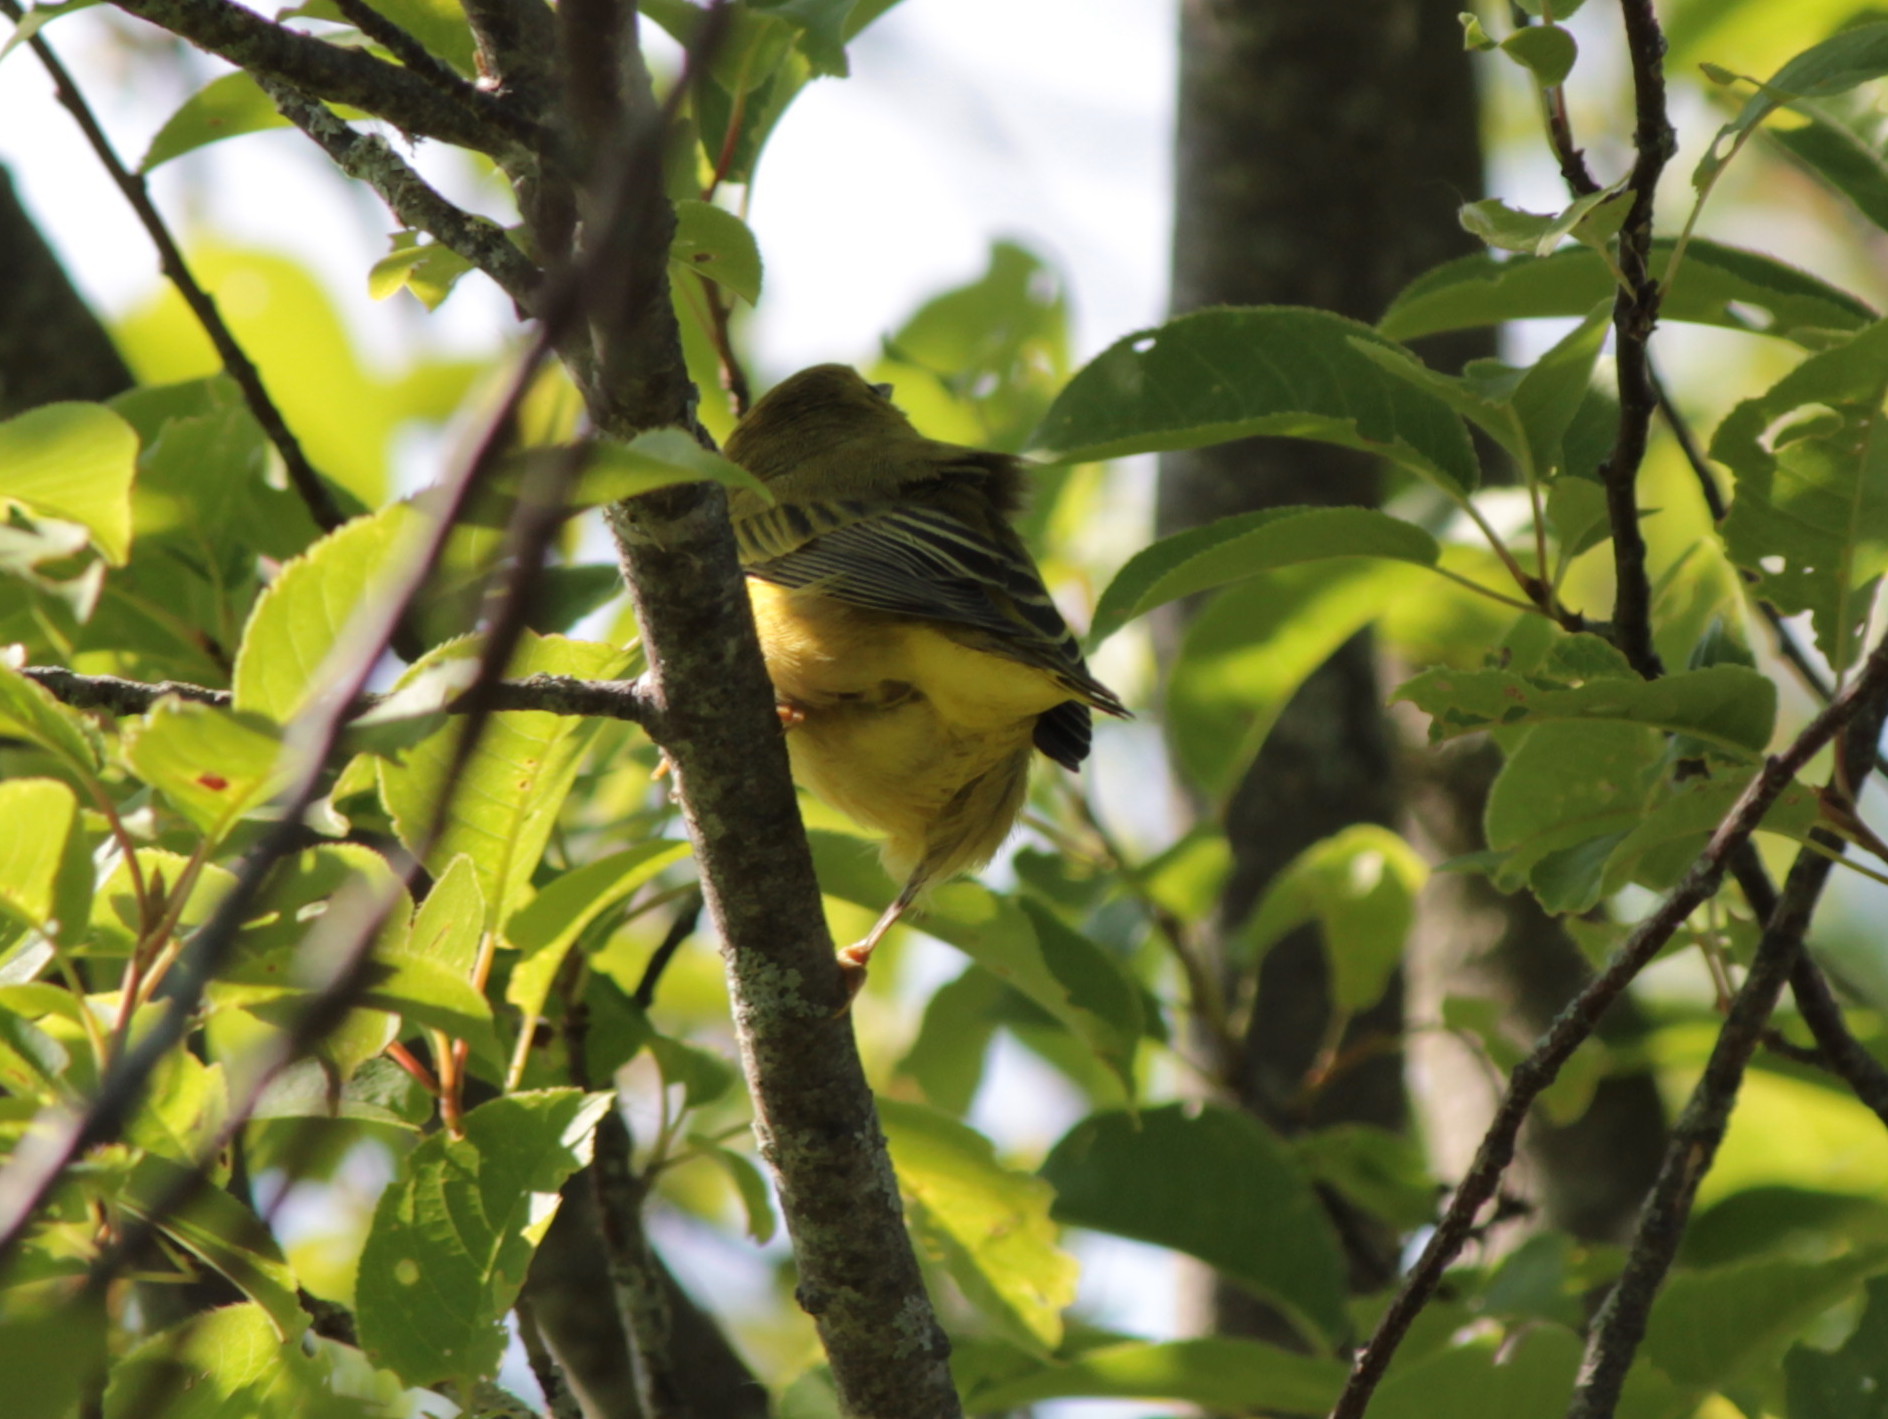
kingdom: Animalia
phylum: Chordata
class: Aves
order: Passeriformes
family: Parulidae
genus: Setophaga
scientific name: Setophaga petechia
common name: Yellow warbler
